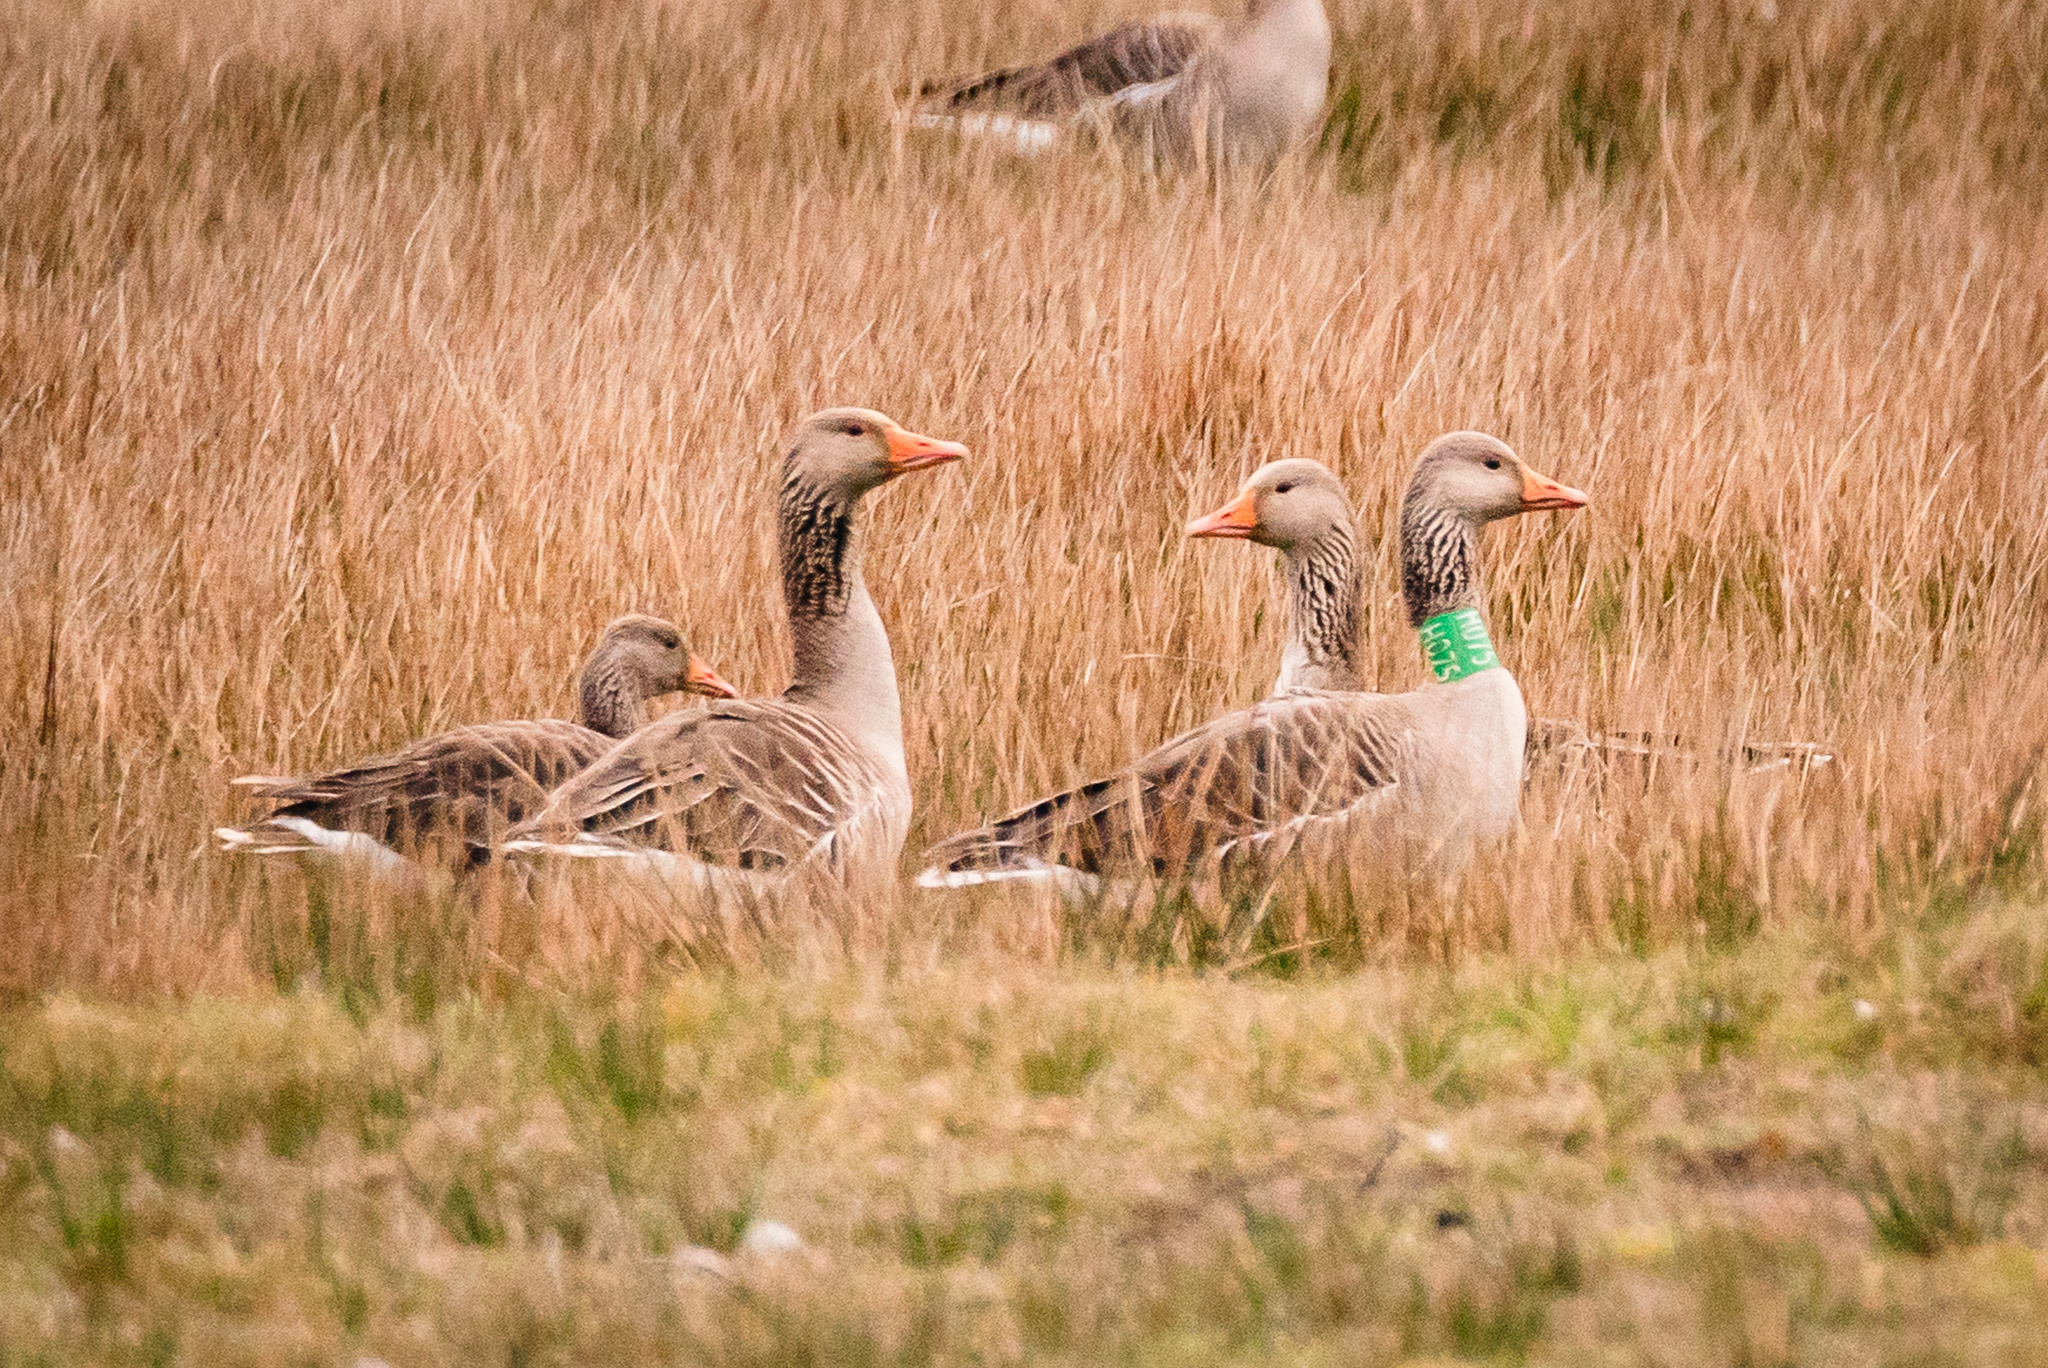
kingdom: Animalia
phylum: Chordata
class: Aves
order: Anseriformes
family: Anatidae
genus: Anser
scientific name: Anser anser
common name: Greylag goose
